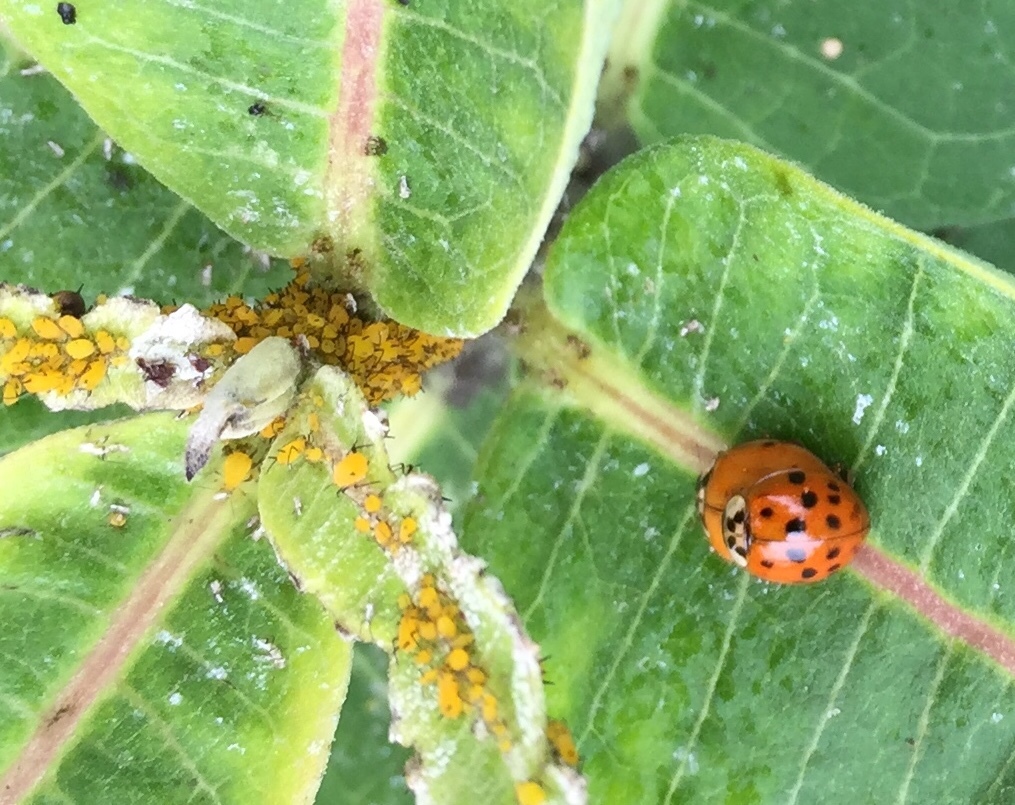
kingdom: Animalia
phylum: Arthropoda
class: Insecta
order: Coleoptera
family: Coccinellidae
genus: Harmonia
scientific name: Harmonia axyridis
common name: Harlequin ladybird
